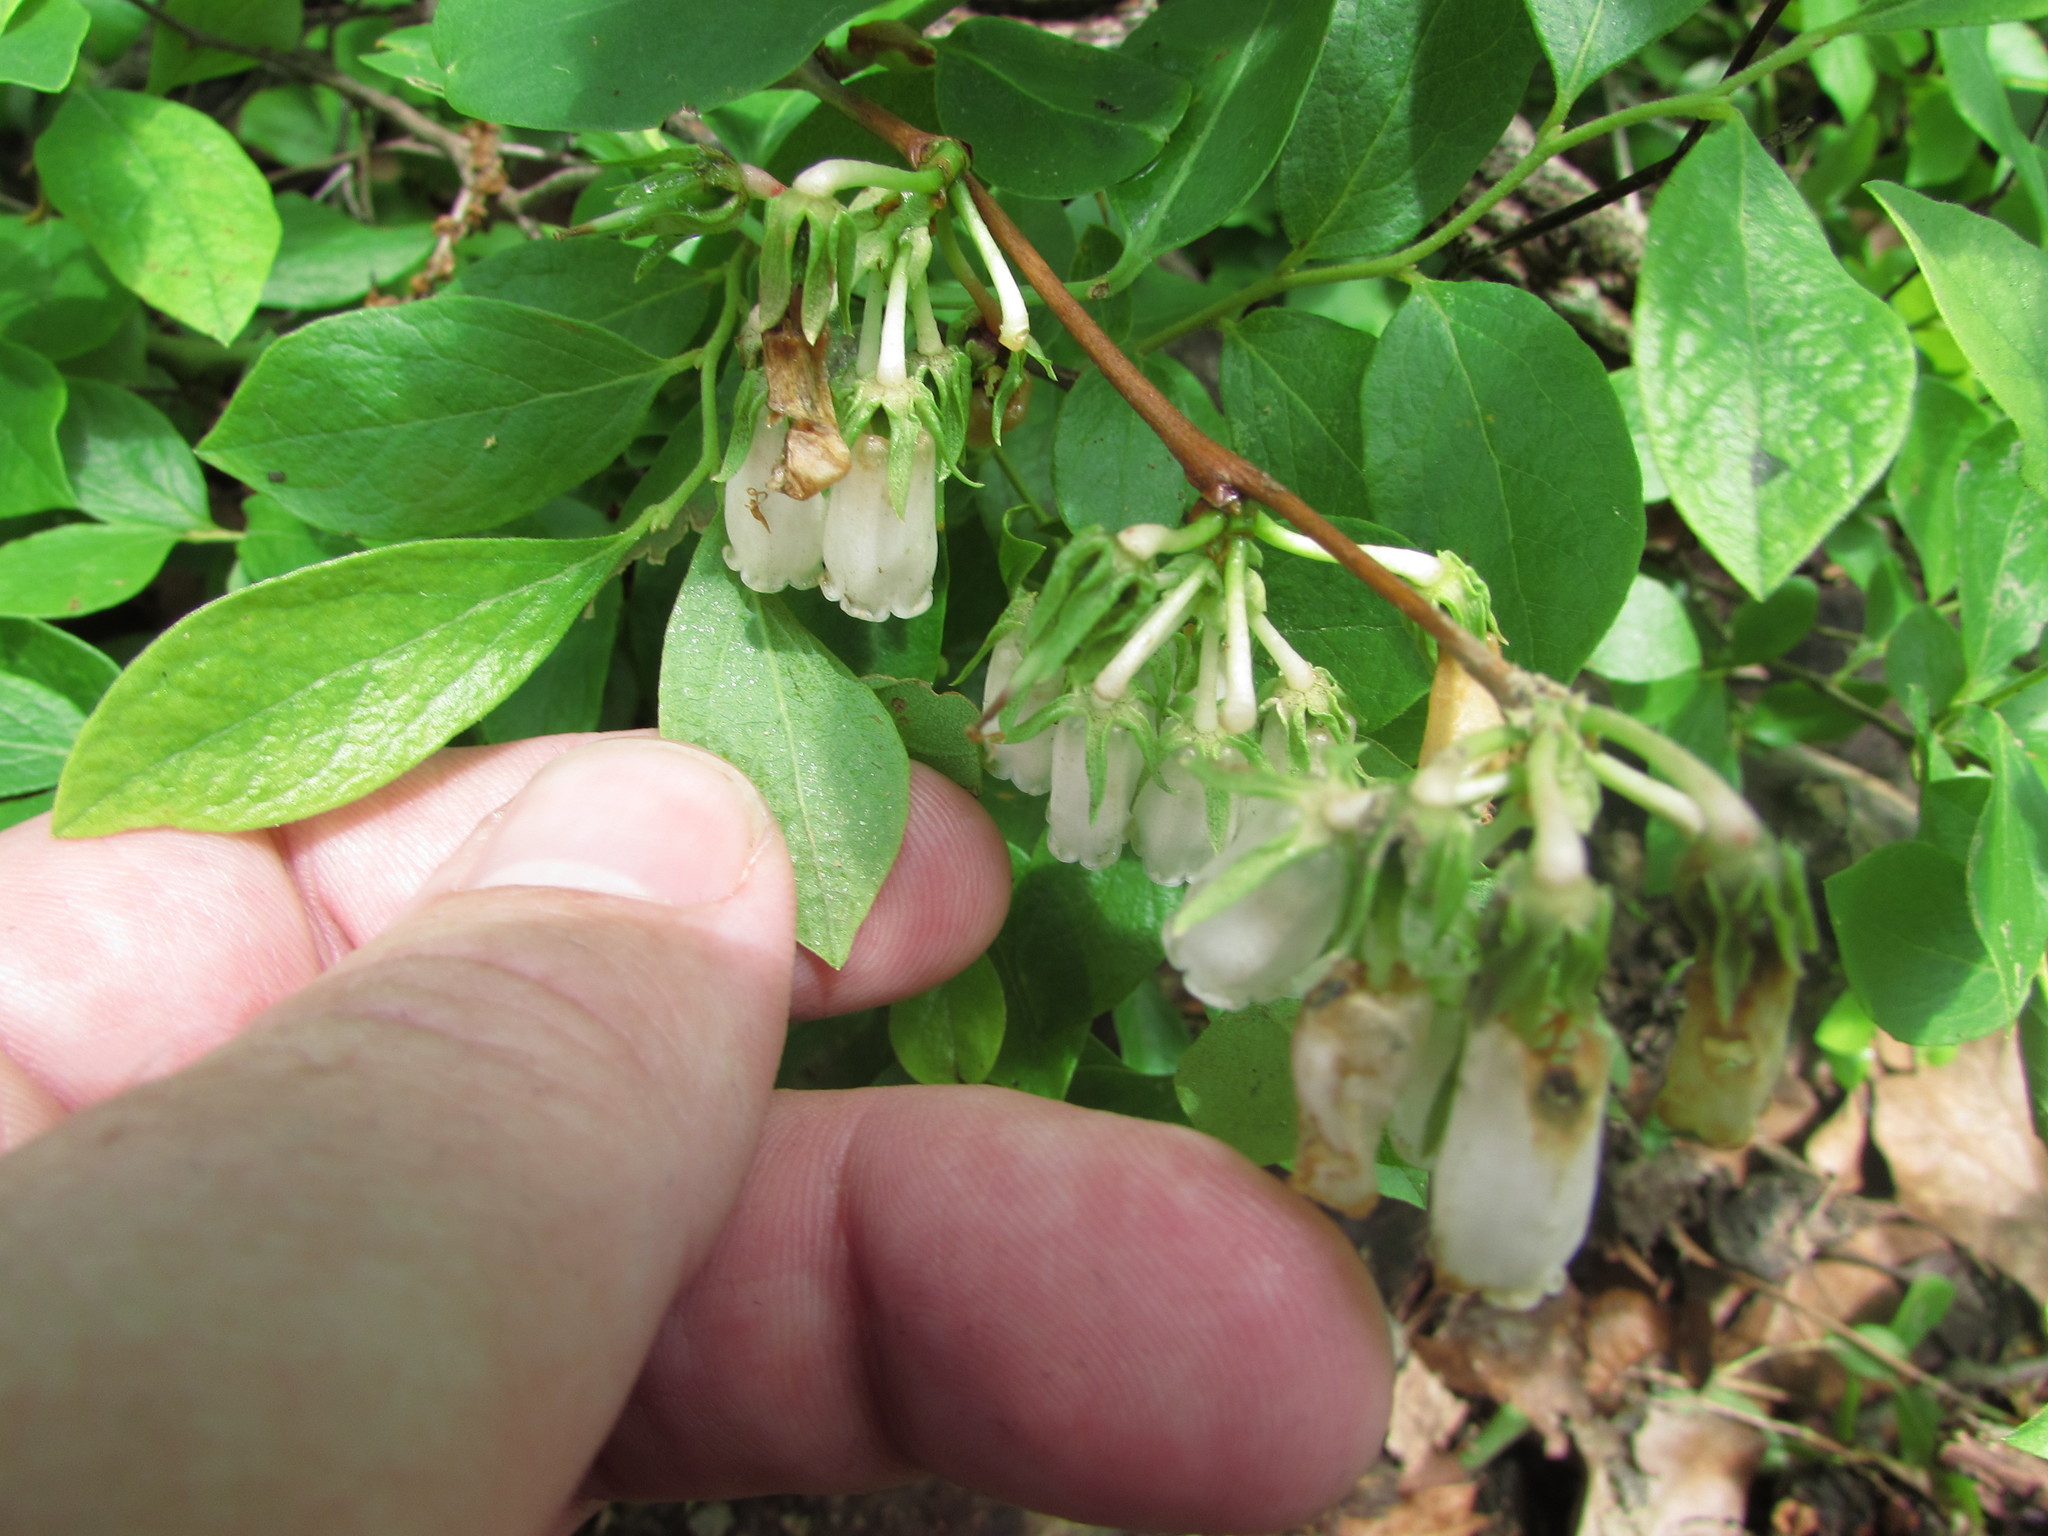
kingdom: Plantae
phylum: Tracheophyta
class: Magnoliopsida
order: Ericales
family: Ericaceae
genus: Gaylussacia
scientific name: Gaylussacia baccata
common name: Black huckleberry
